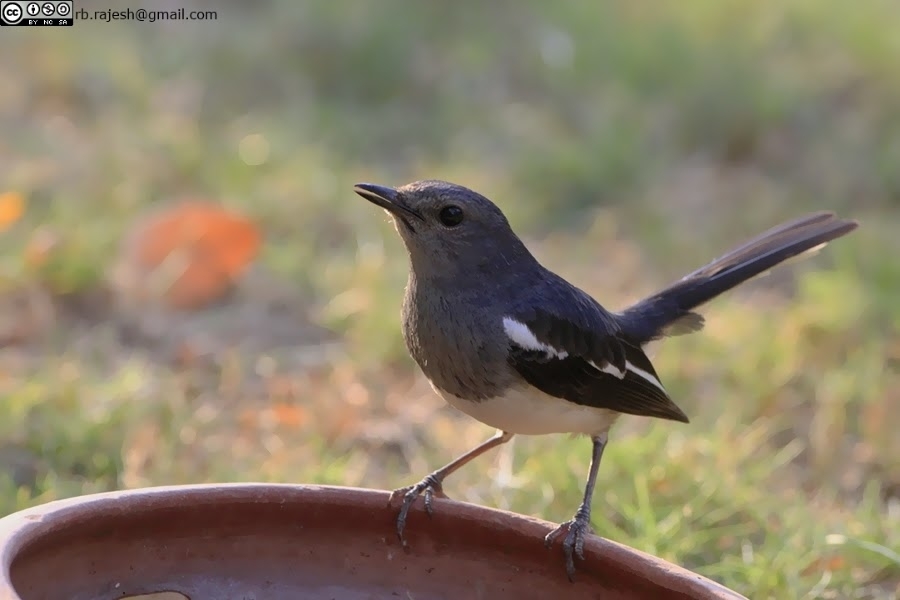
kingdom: Animalia
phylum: Chordata
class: Aves
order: Passeriformes
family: Muscicapidae
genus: Copsychus
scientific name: Copsychus saularis
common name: Oriental magpie-robin
